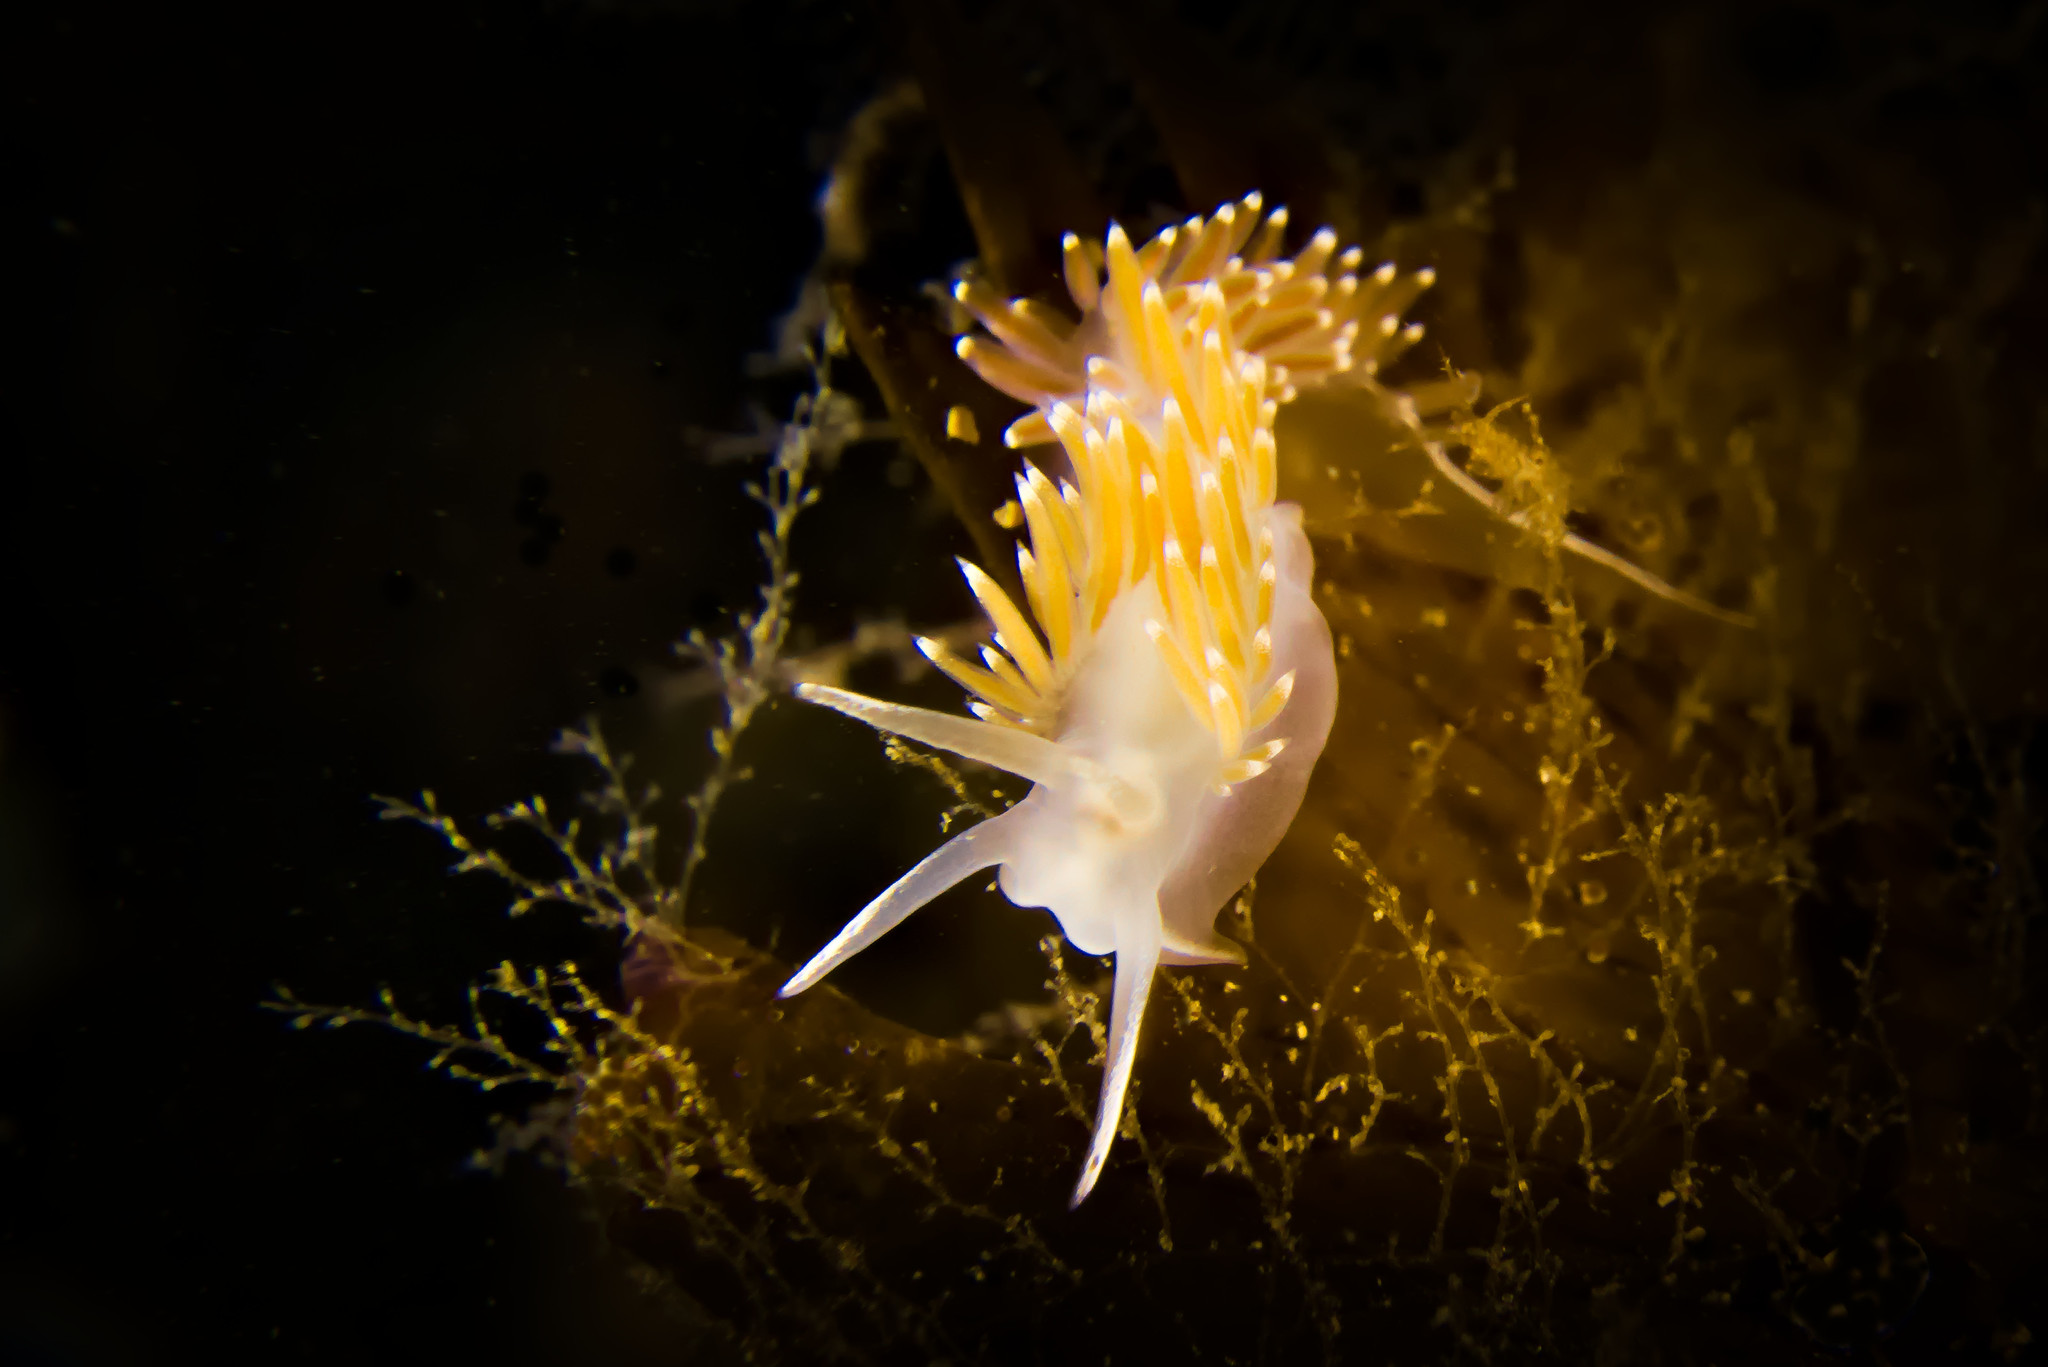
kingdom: Animalia
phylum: Mollusca
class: Gastropoda
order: Nudibranchia
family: Coryphellidae
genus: Coryphella
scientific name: Coryphella verrucosa
